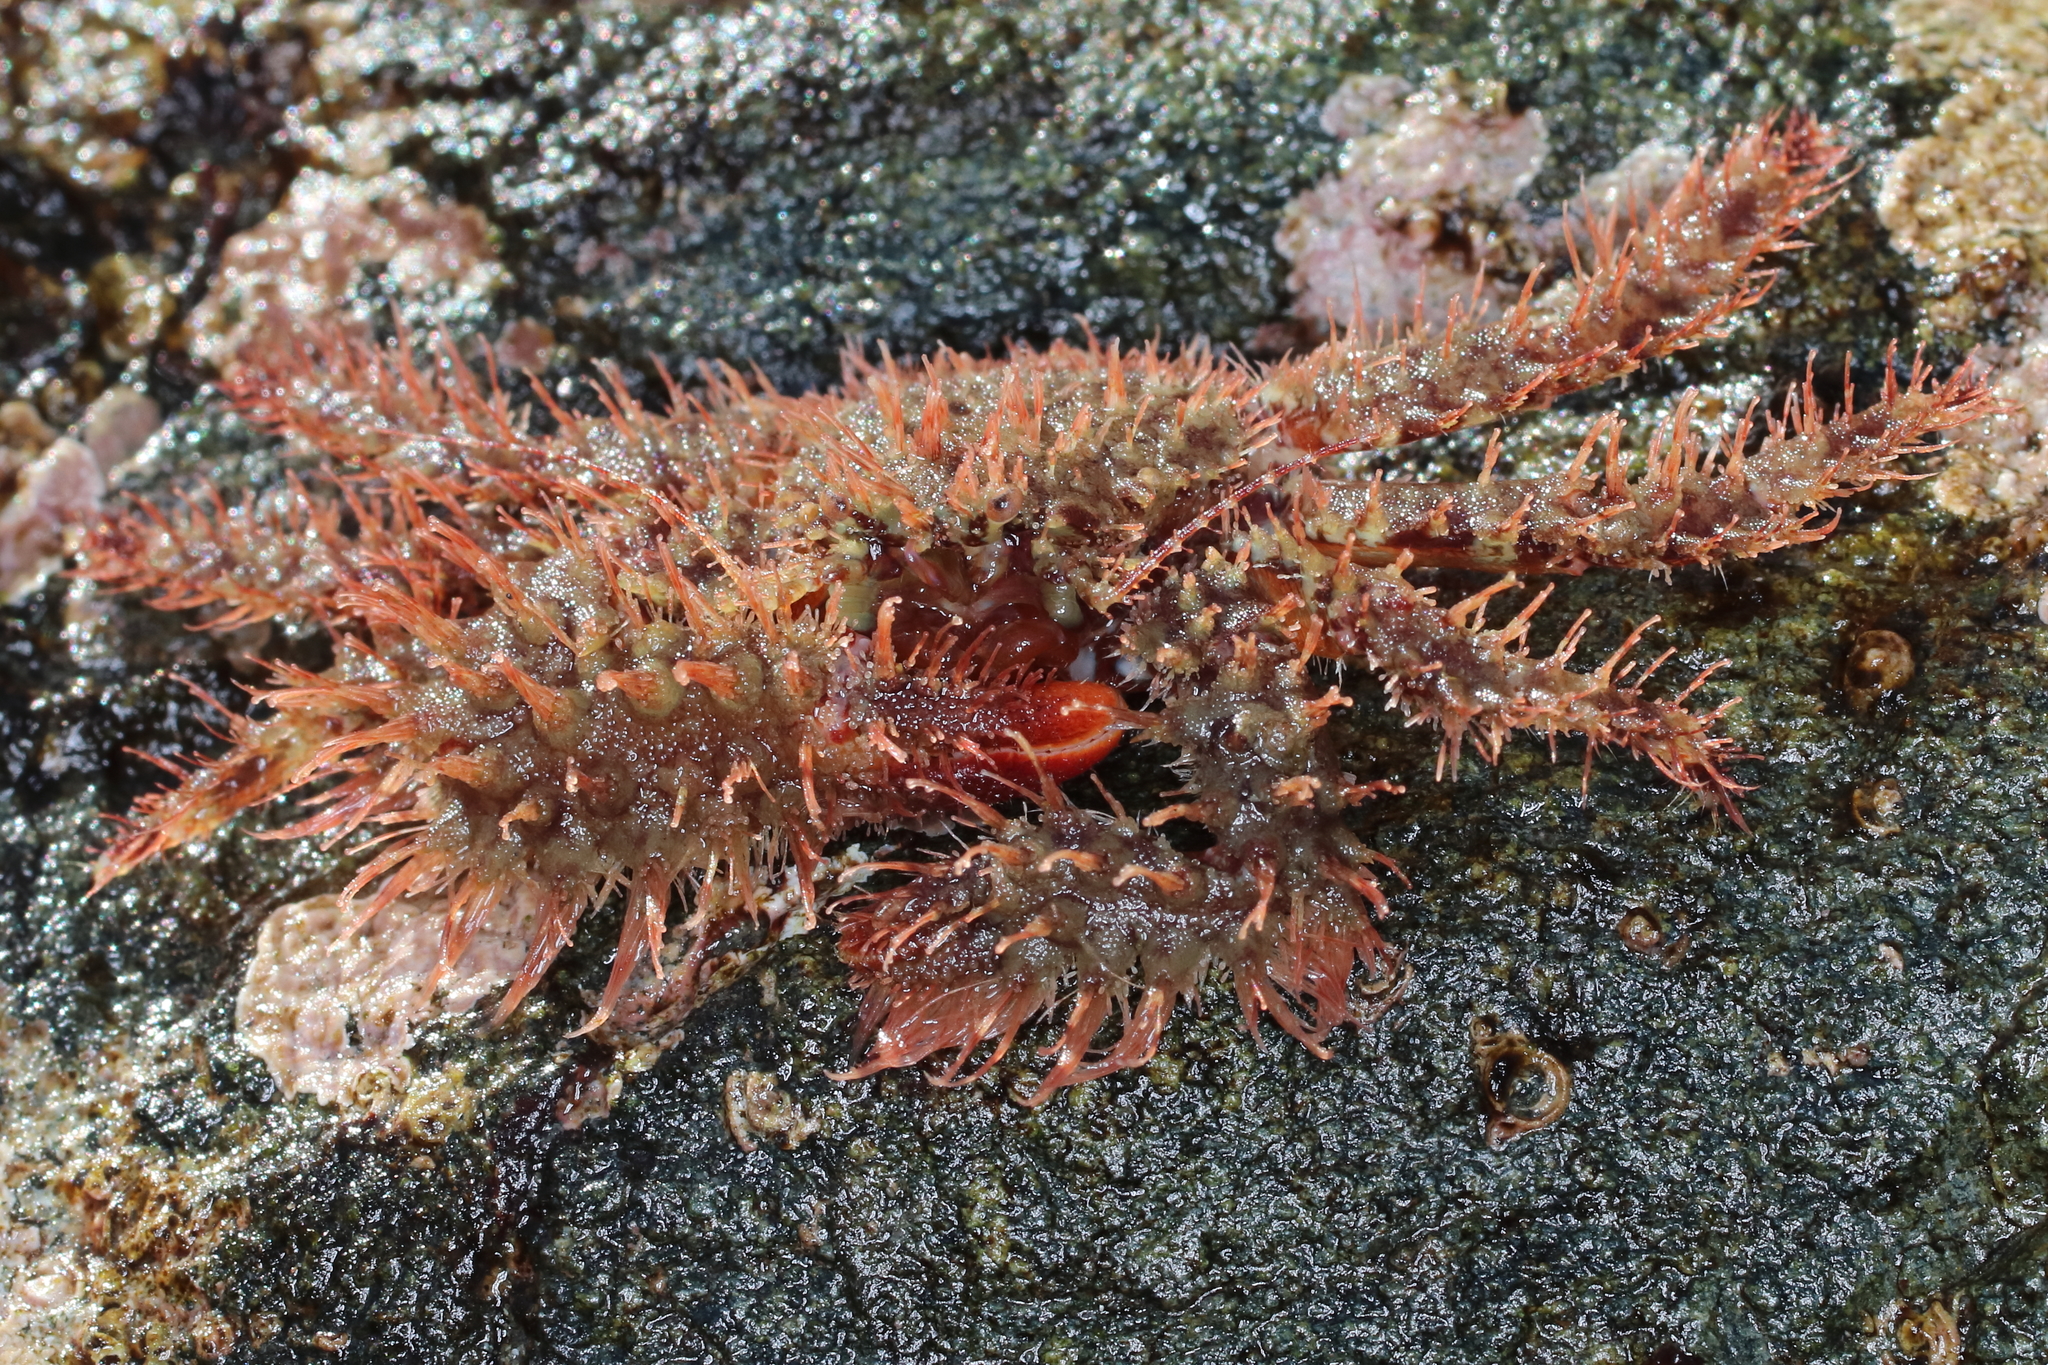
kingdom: Animalia
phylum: Arthropoda
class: Malacostraca
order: Decapoda
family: Hapalogastridae
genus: Hapalogaster
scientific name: Hapalogaster mertensii
